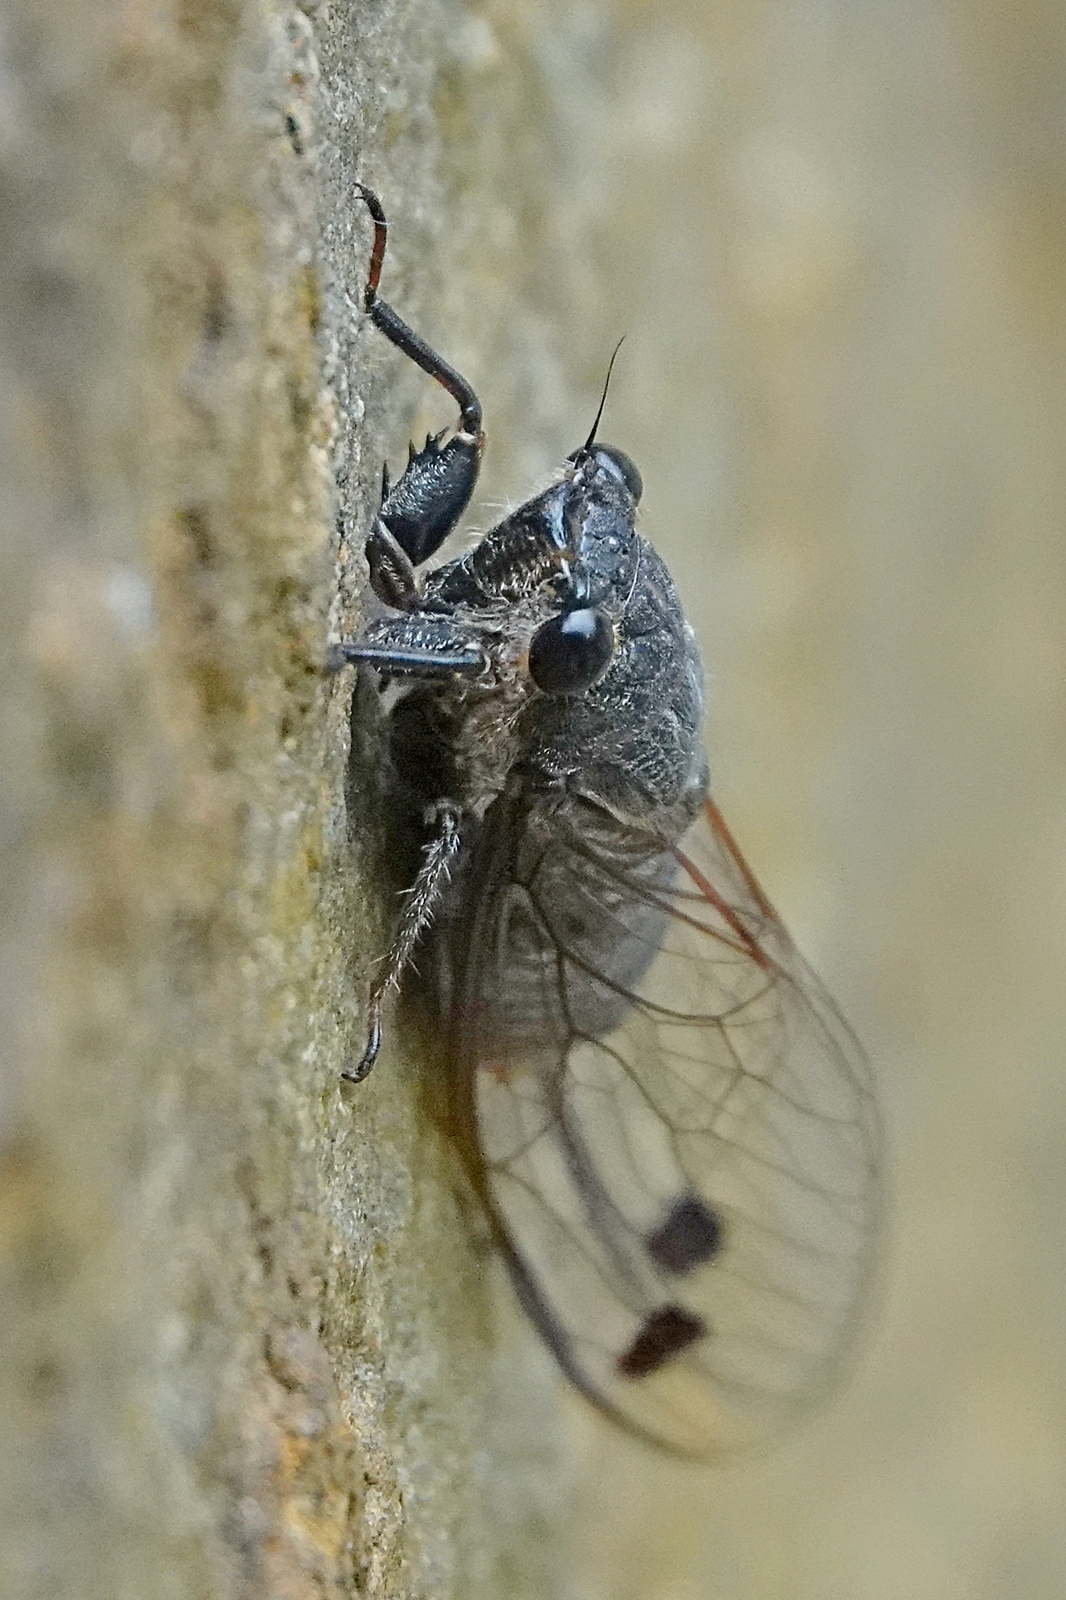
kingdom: Animalia
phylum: Arthropoda
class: Insecta
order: Hemiptera
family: Cicadidae
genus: Galanga
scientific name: Galanga labeculata
